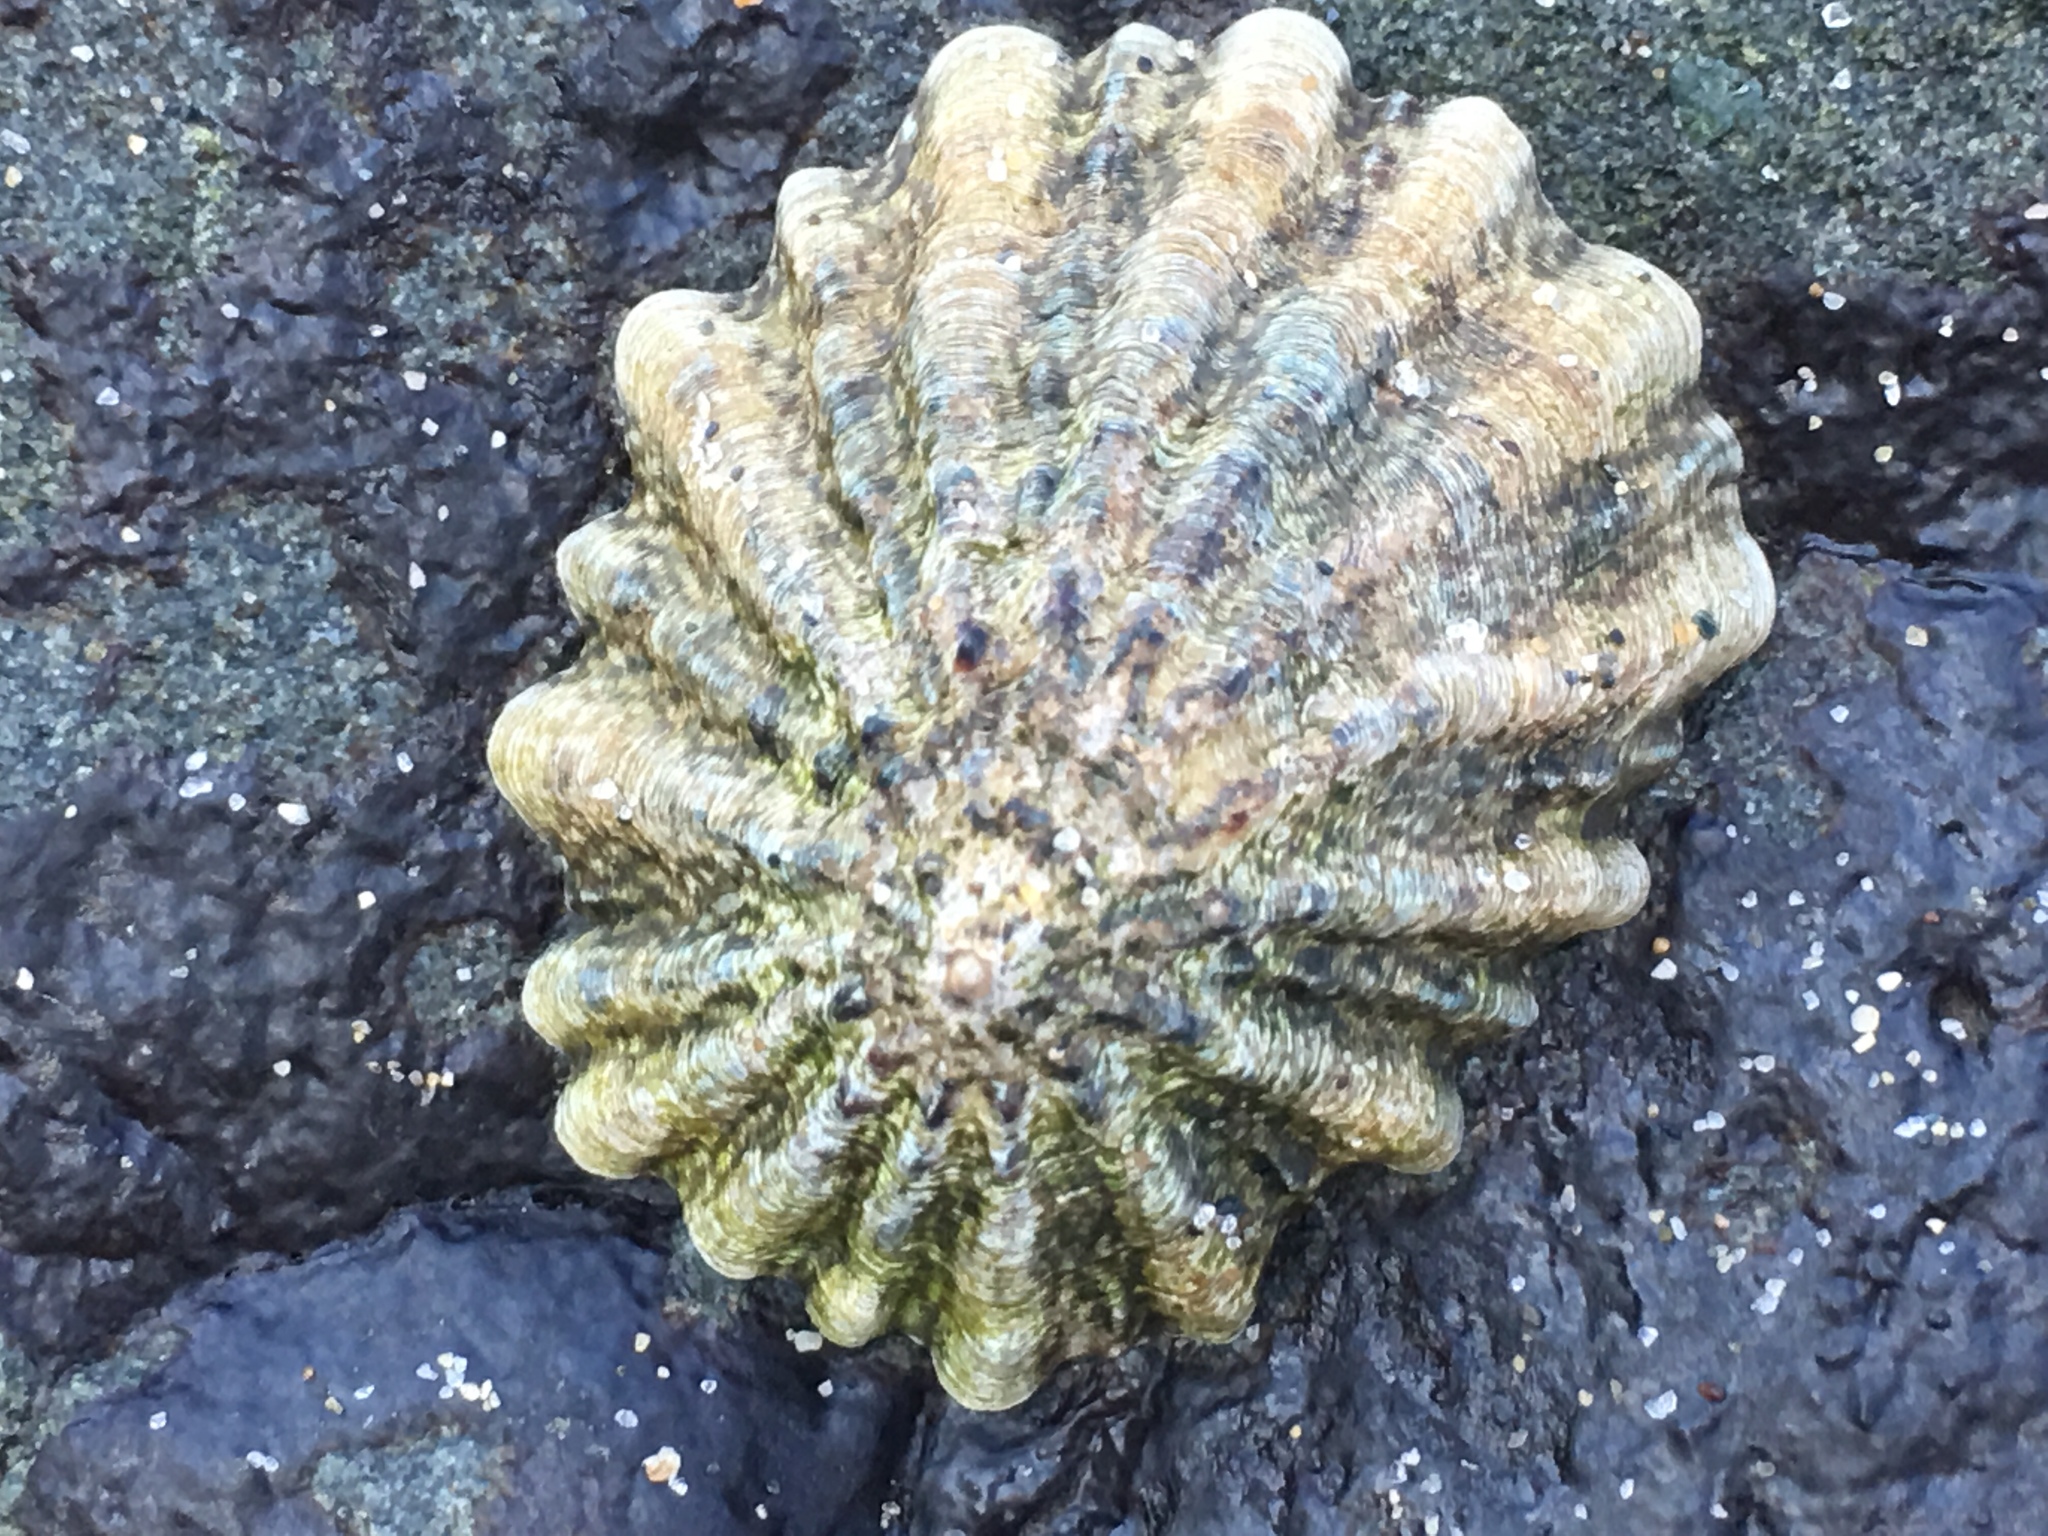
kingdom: Animalia
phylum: Mollusca
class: Gastropoda
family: Lottiidae
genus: Lottia
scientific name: Lottia scabra
